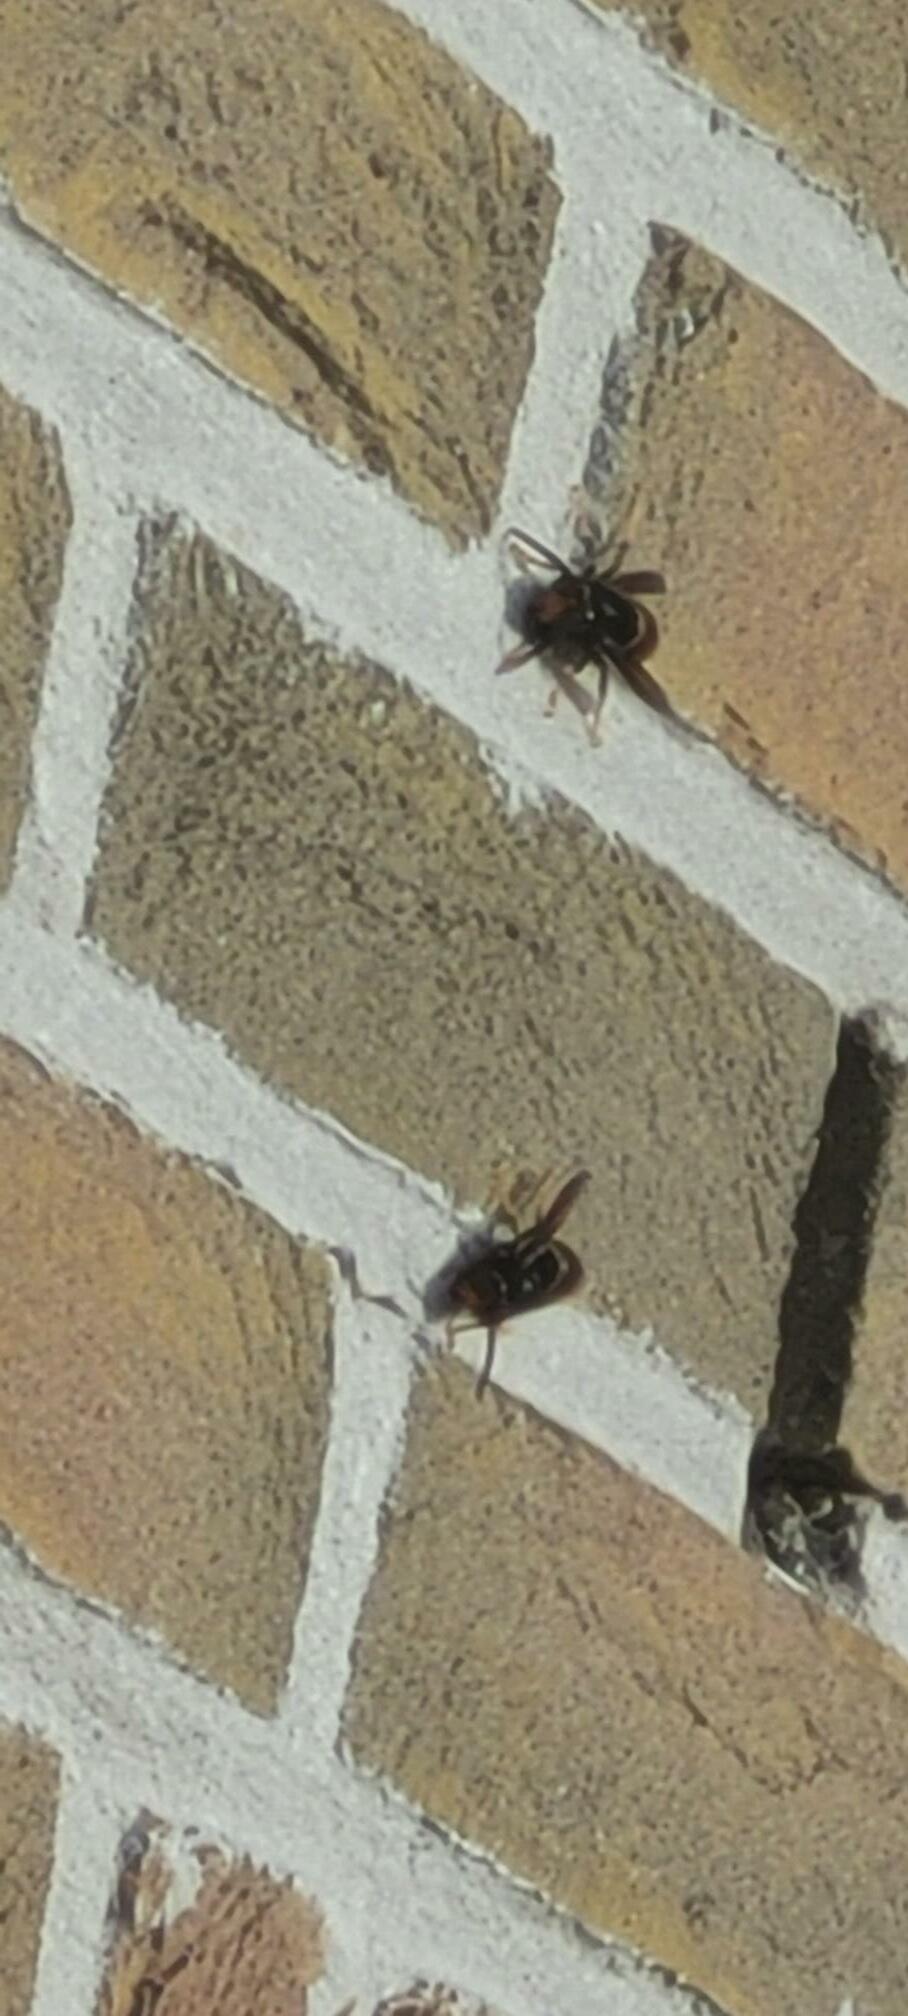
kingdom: Animalia
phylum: Arthropoda
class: Insecta
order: Hymenoptera
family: Vespidae
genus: Vespa
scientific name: Vespa velutina
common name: Asian hornet
